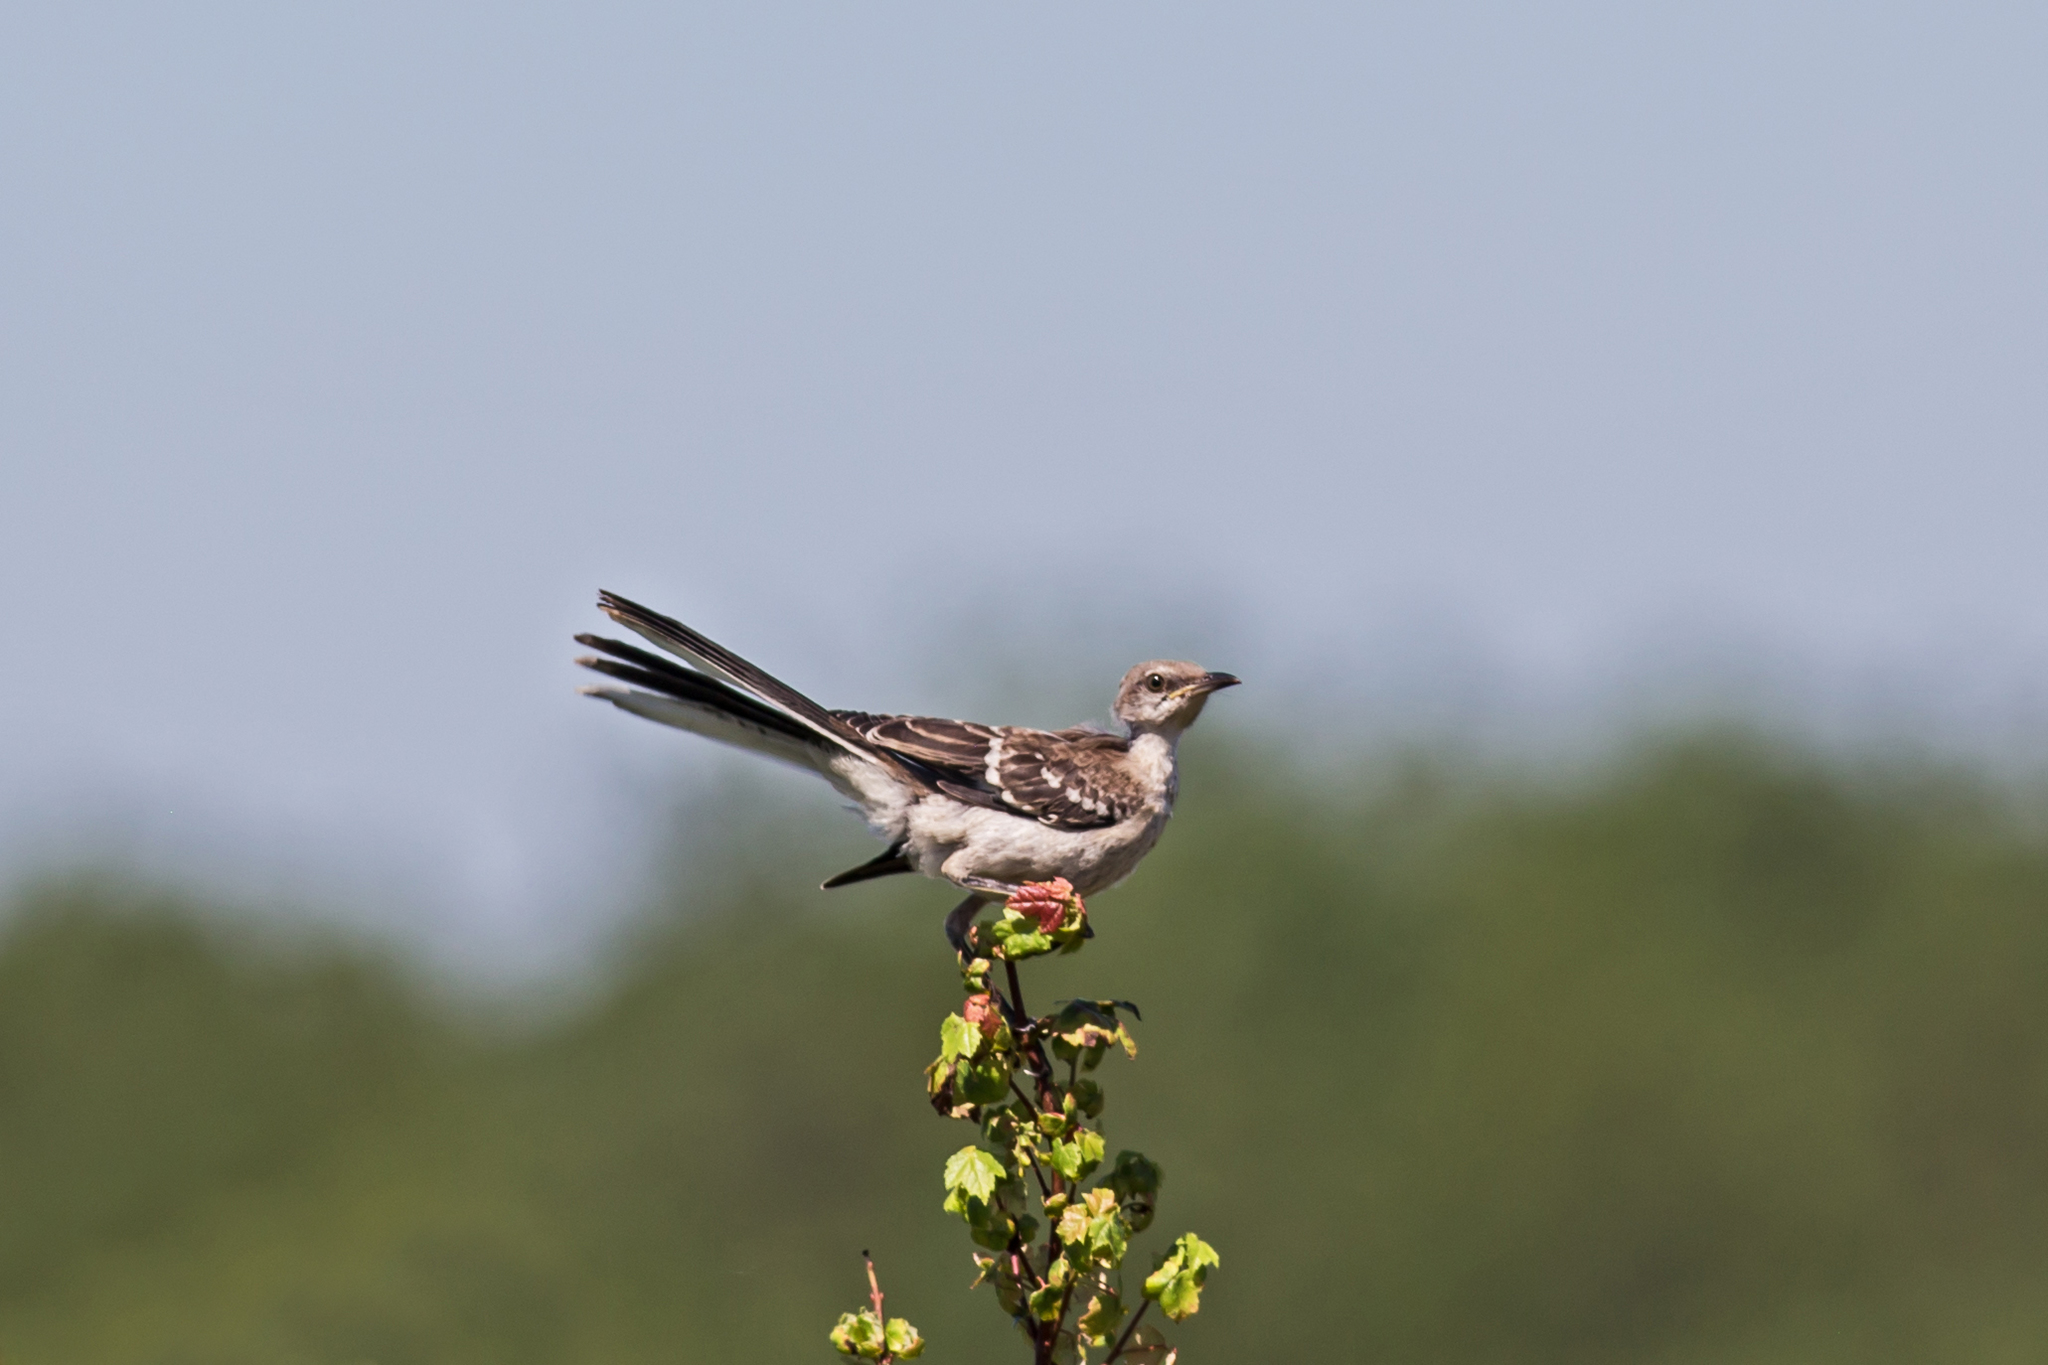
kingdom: Animalia
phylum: Chordata
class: Aves
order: Passeriformes
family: Mimidae
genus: Mimus
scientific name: Mimus polyglottos
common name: Northern mockingbird
